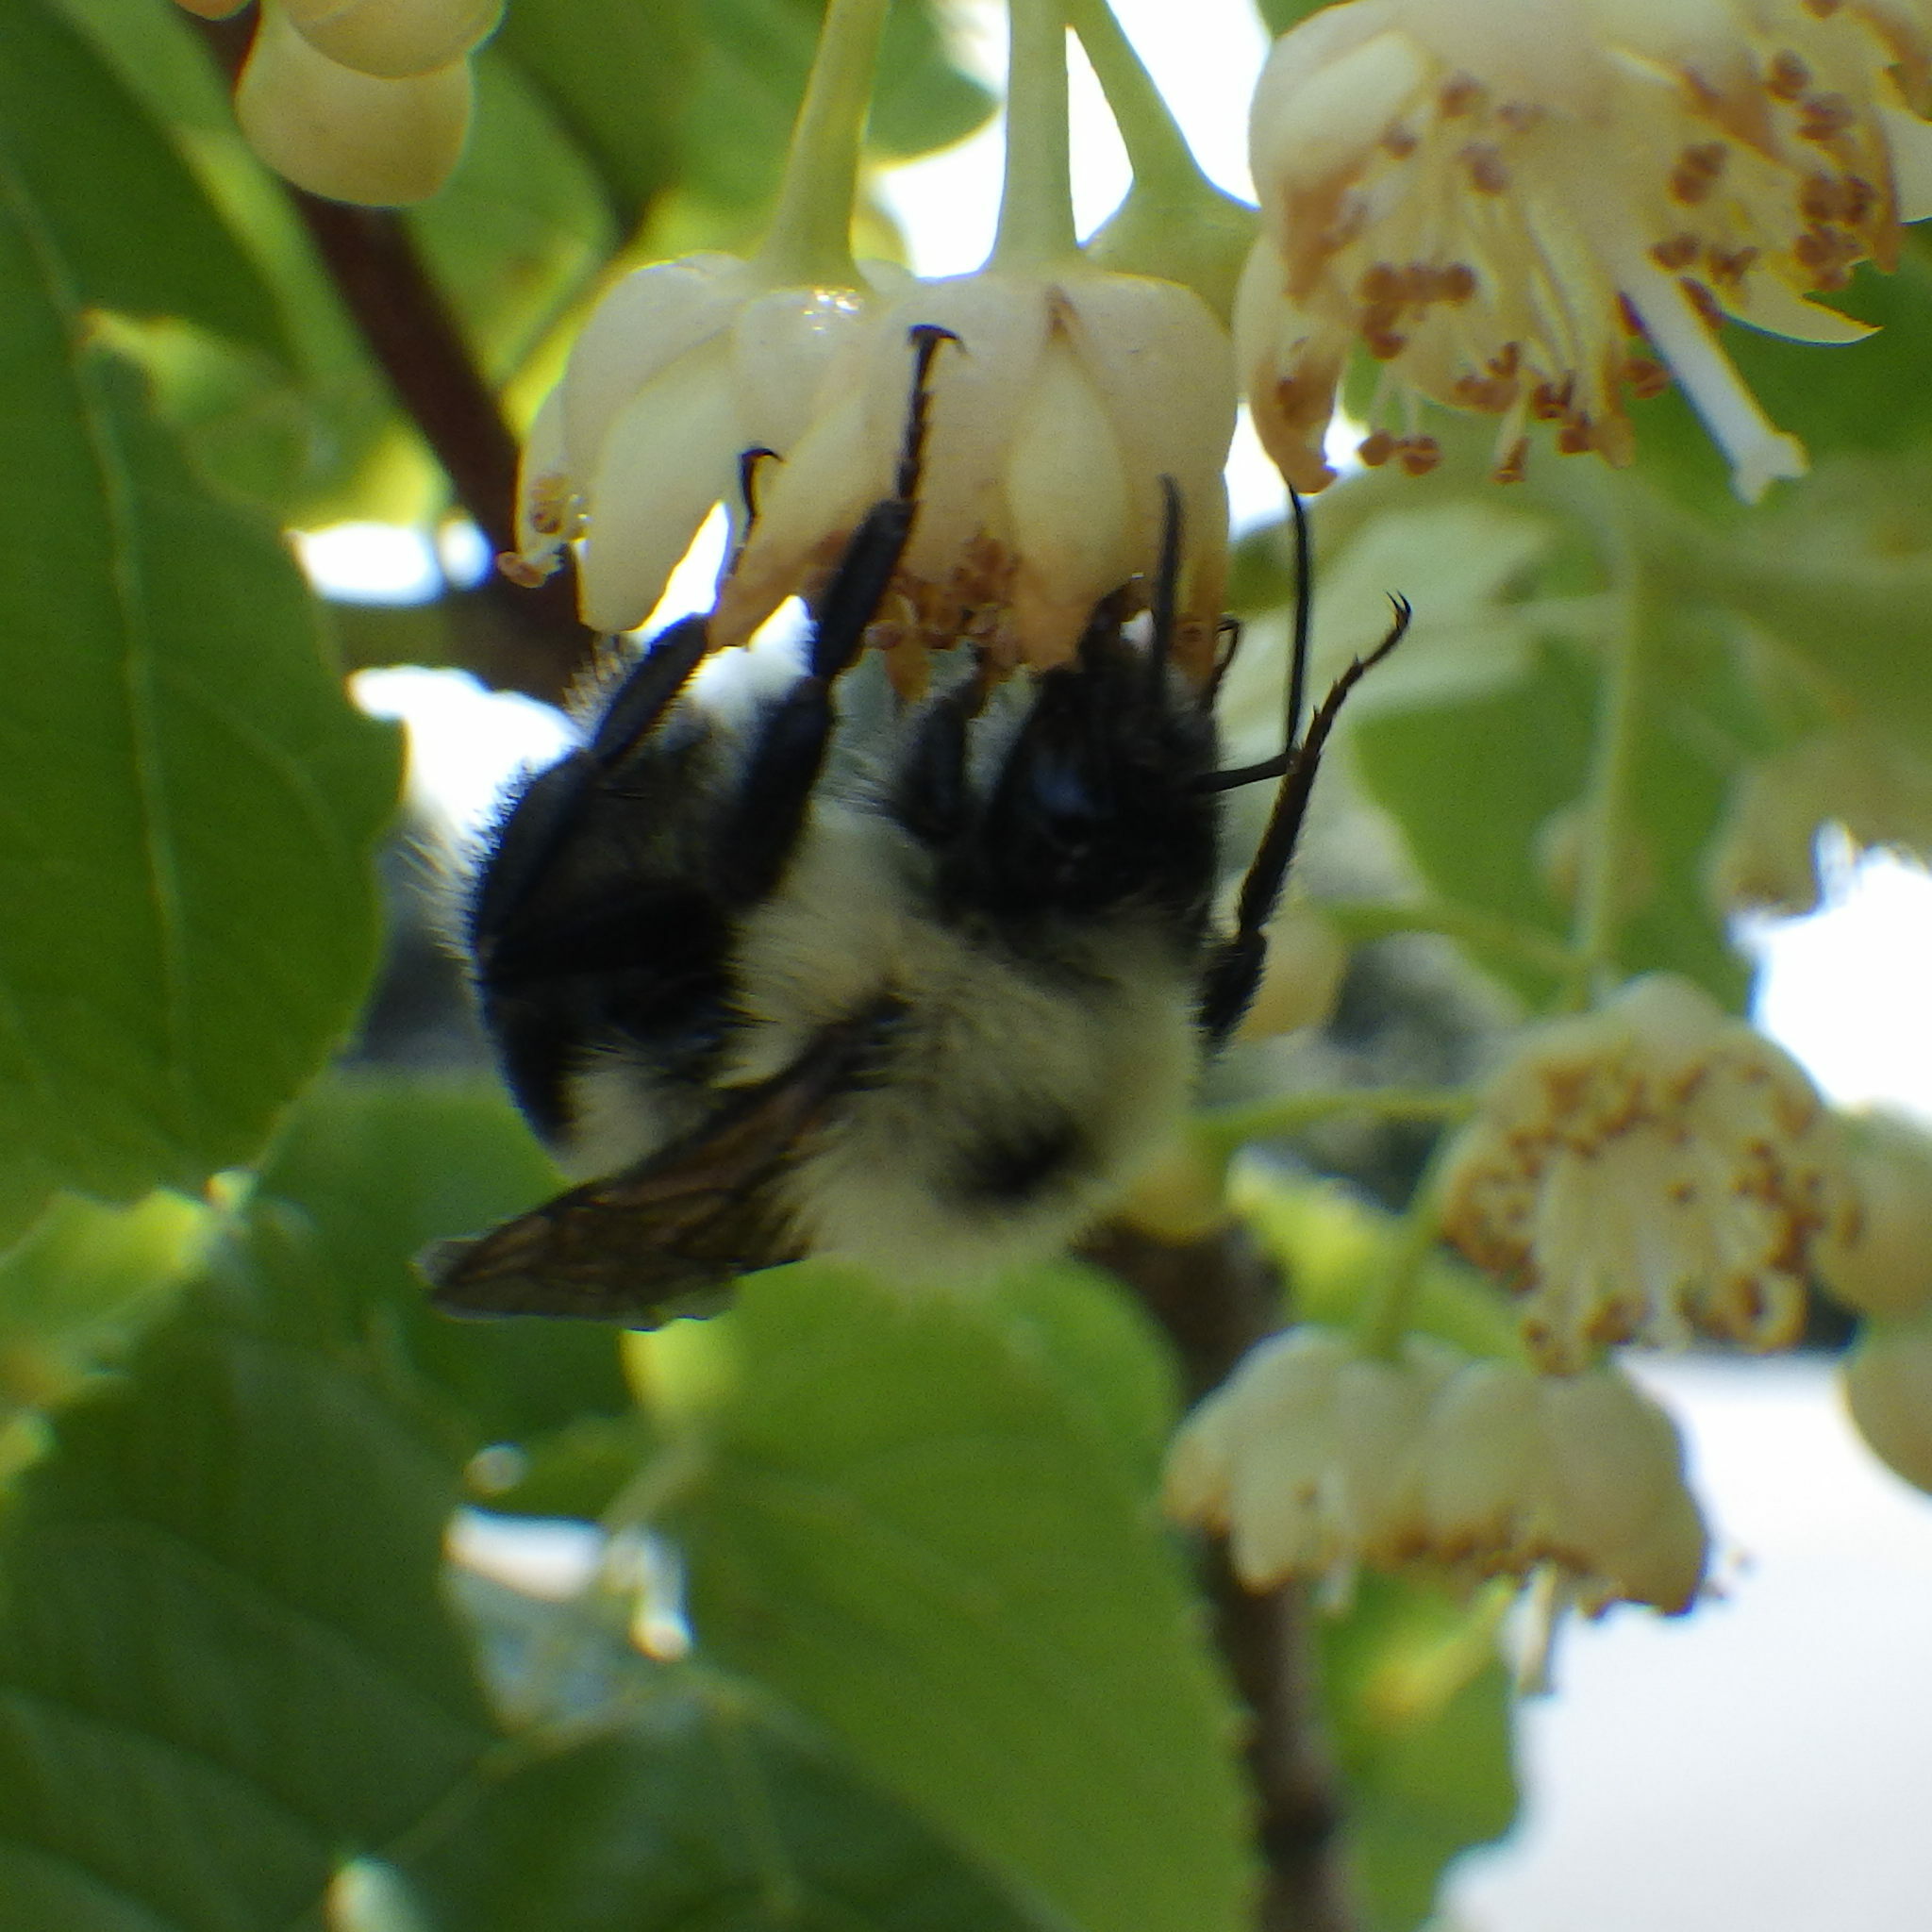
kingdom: Animalia
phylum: Arthropoda
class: Insecta
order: Hymenoptera
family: Apidae
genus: Bombus
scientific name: Bombus bimaculatus
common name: Two-spotted bumble bee
